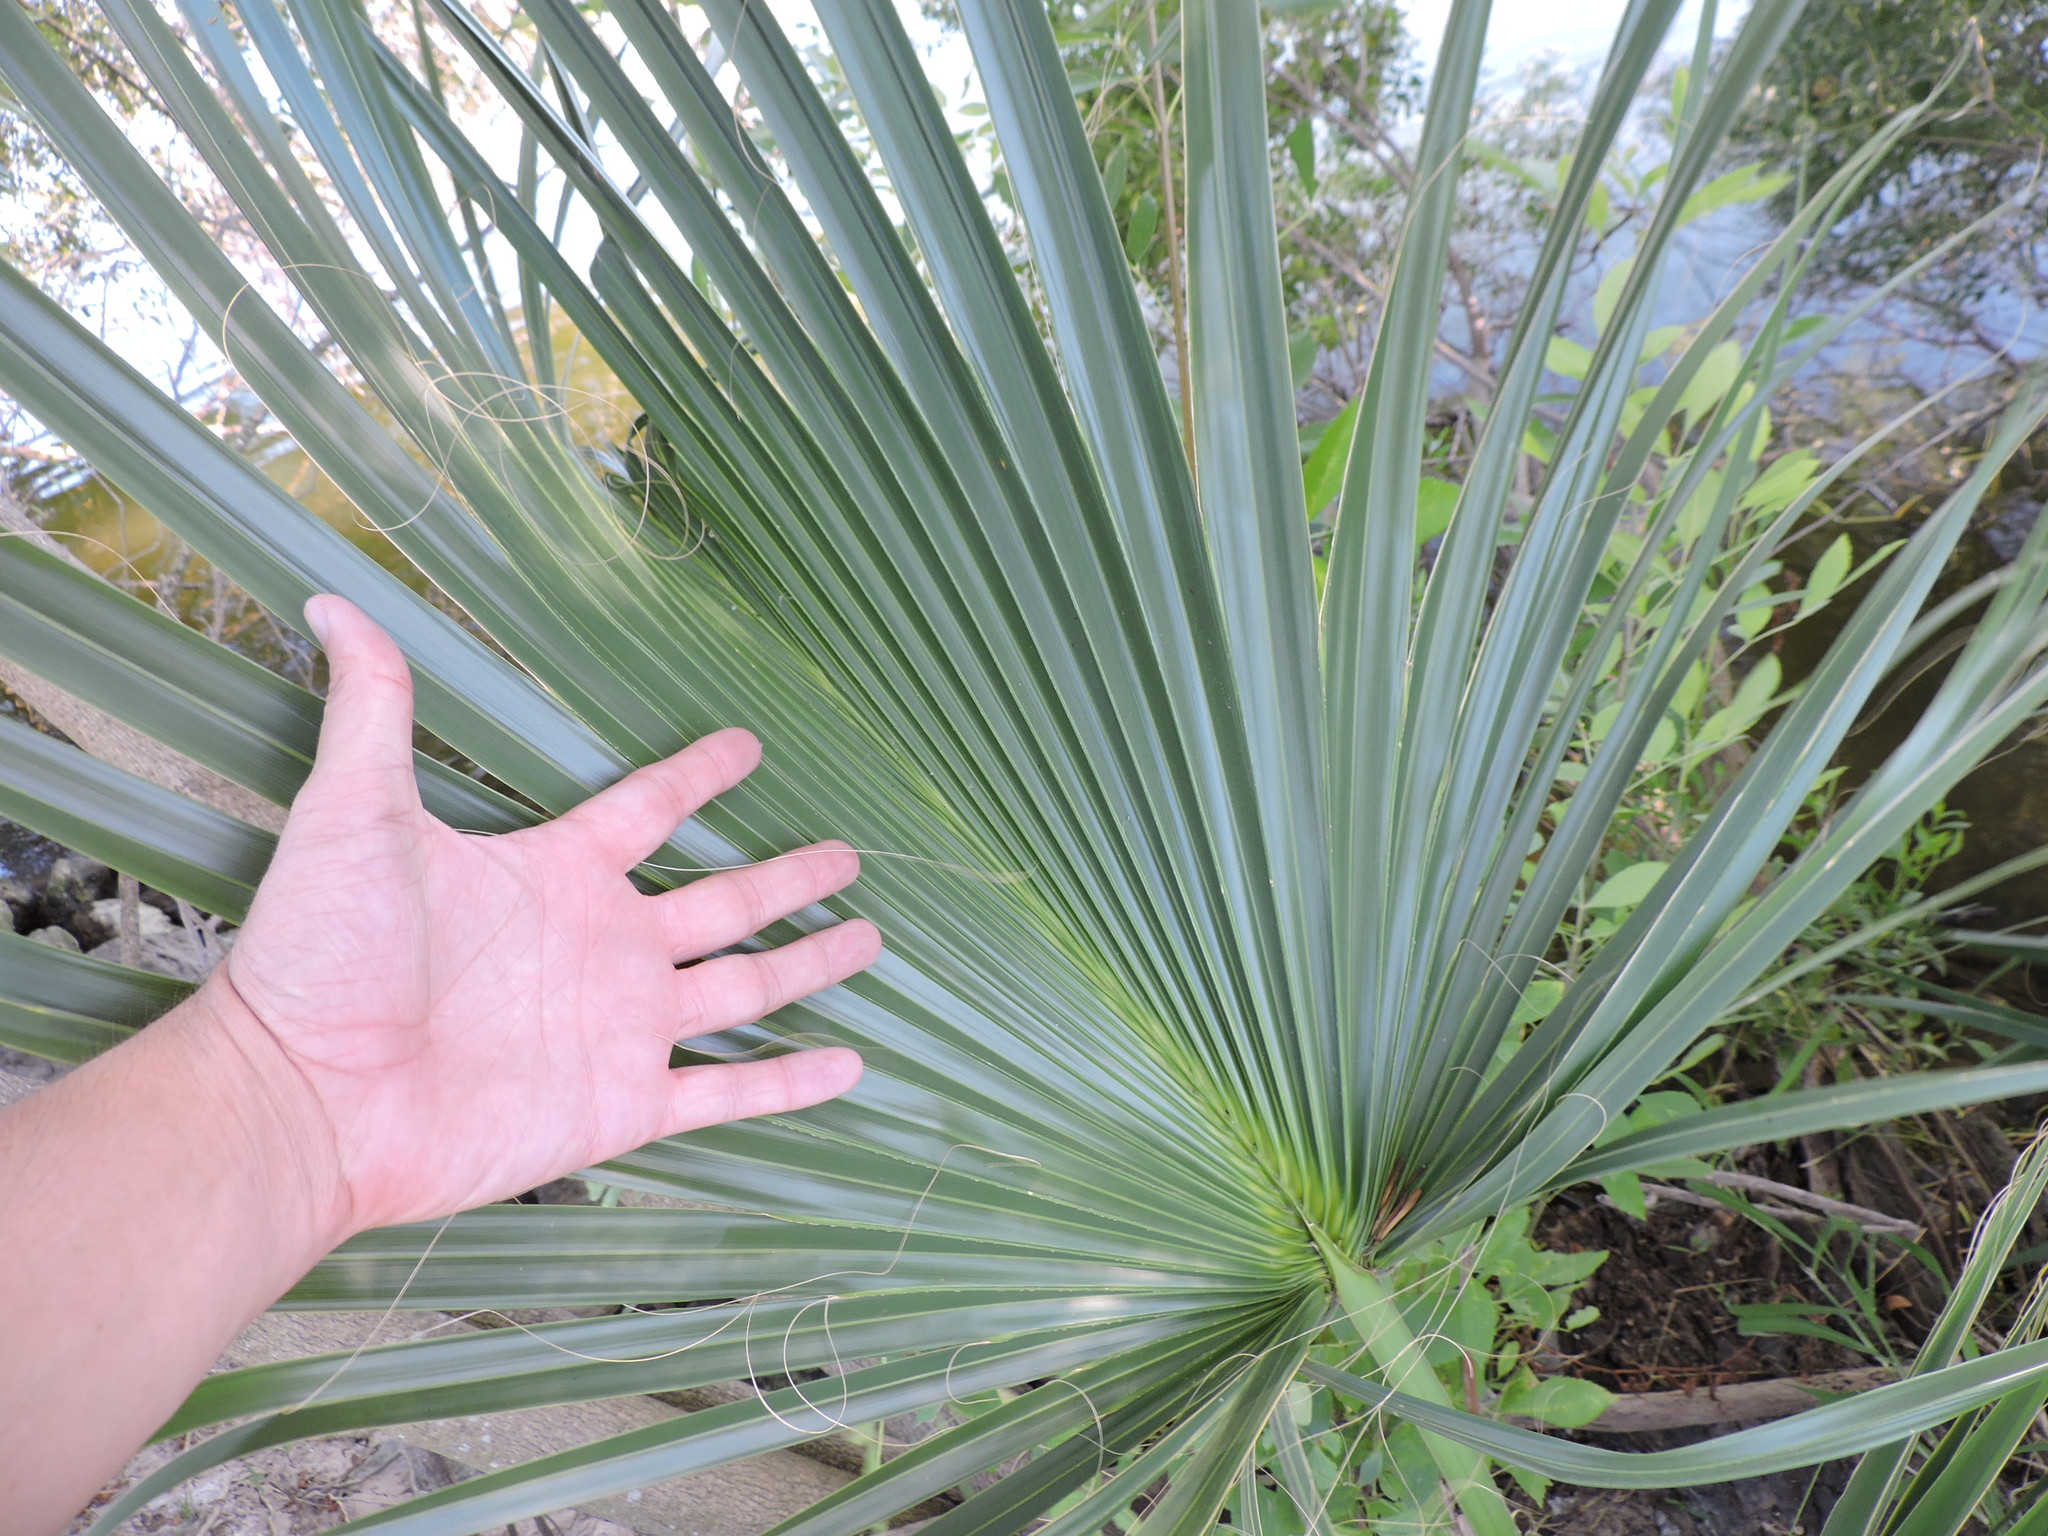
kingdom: Plantae
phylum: Tracheophyta
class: Liliopsida
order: Arecales
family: Arecaceae
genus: Sabal
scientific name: Sabal minor
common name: Dwarf palmetto
